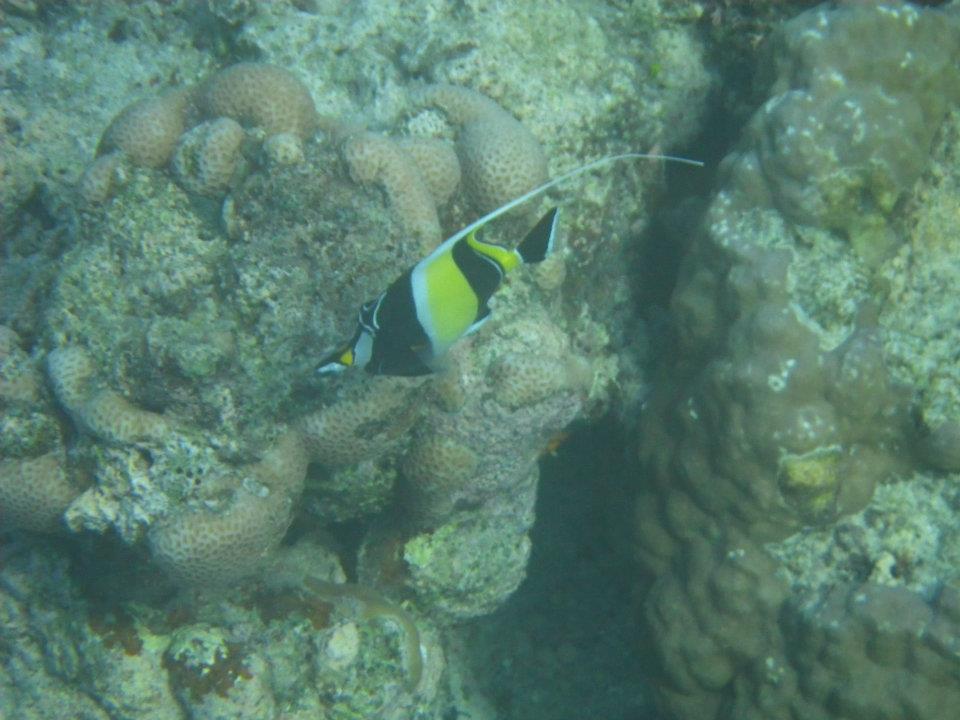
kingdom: Animalia
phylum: Chordata
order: Perciformes
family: Zanclidae
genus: Zanclus
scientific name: Zanclus cornutus
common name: Moorish idol
